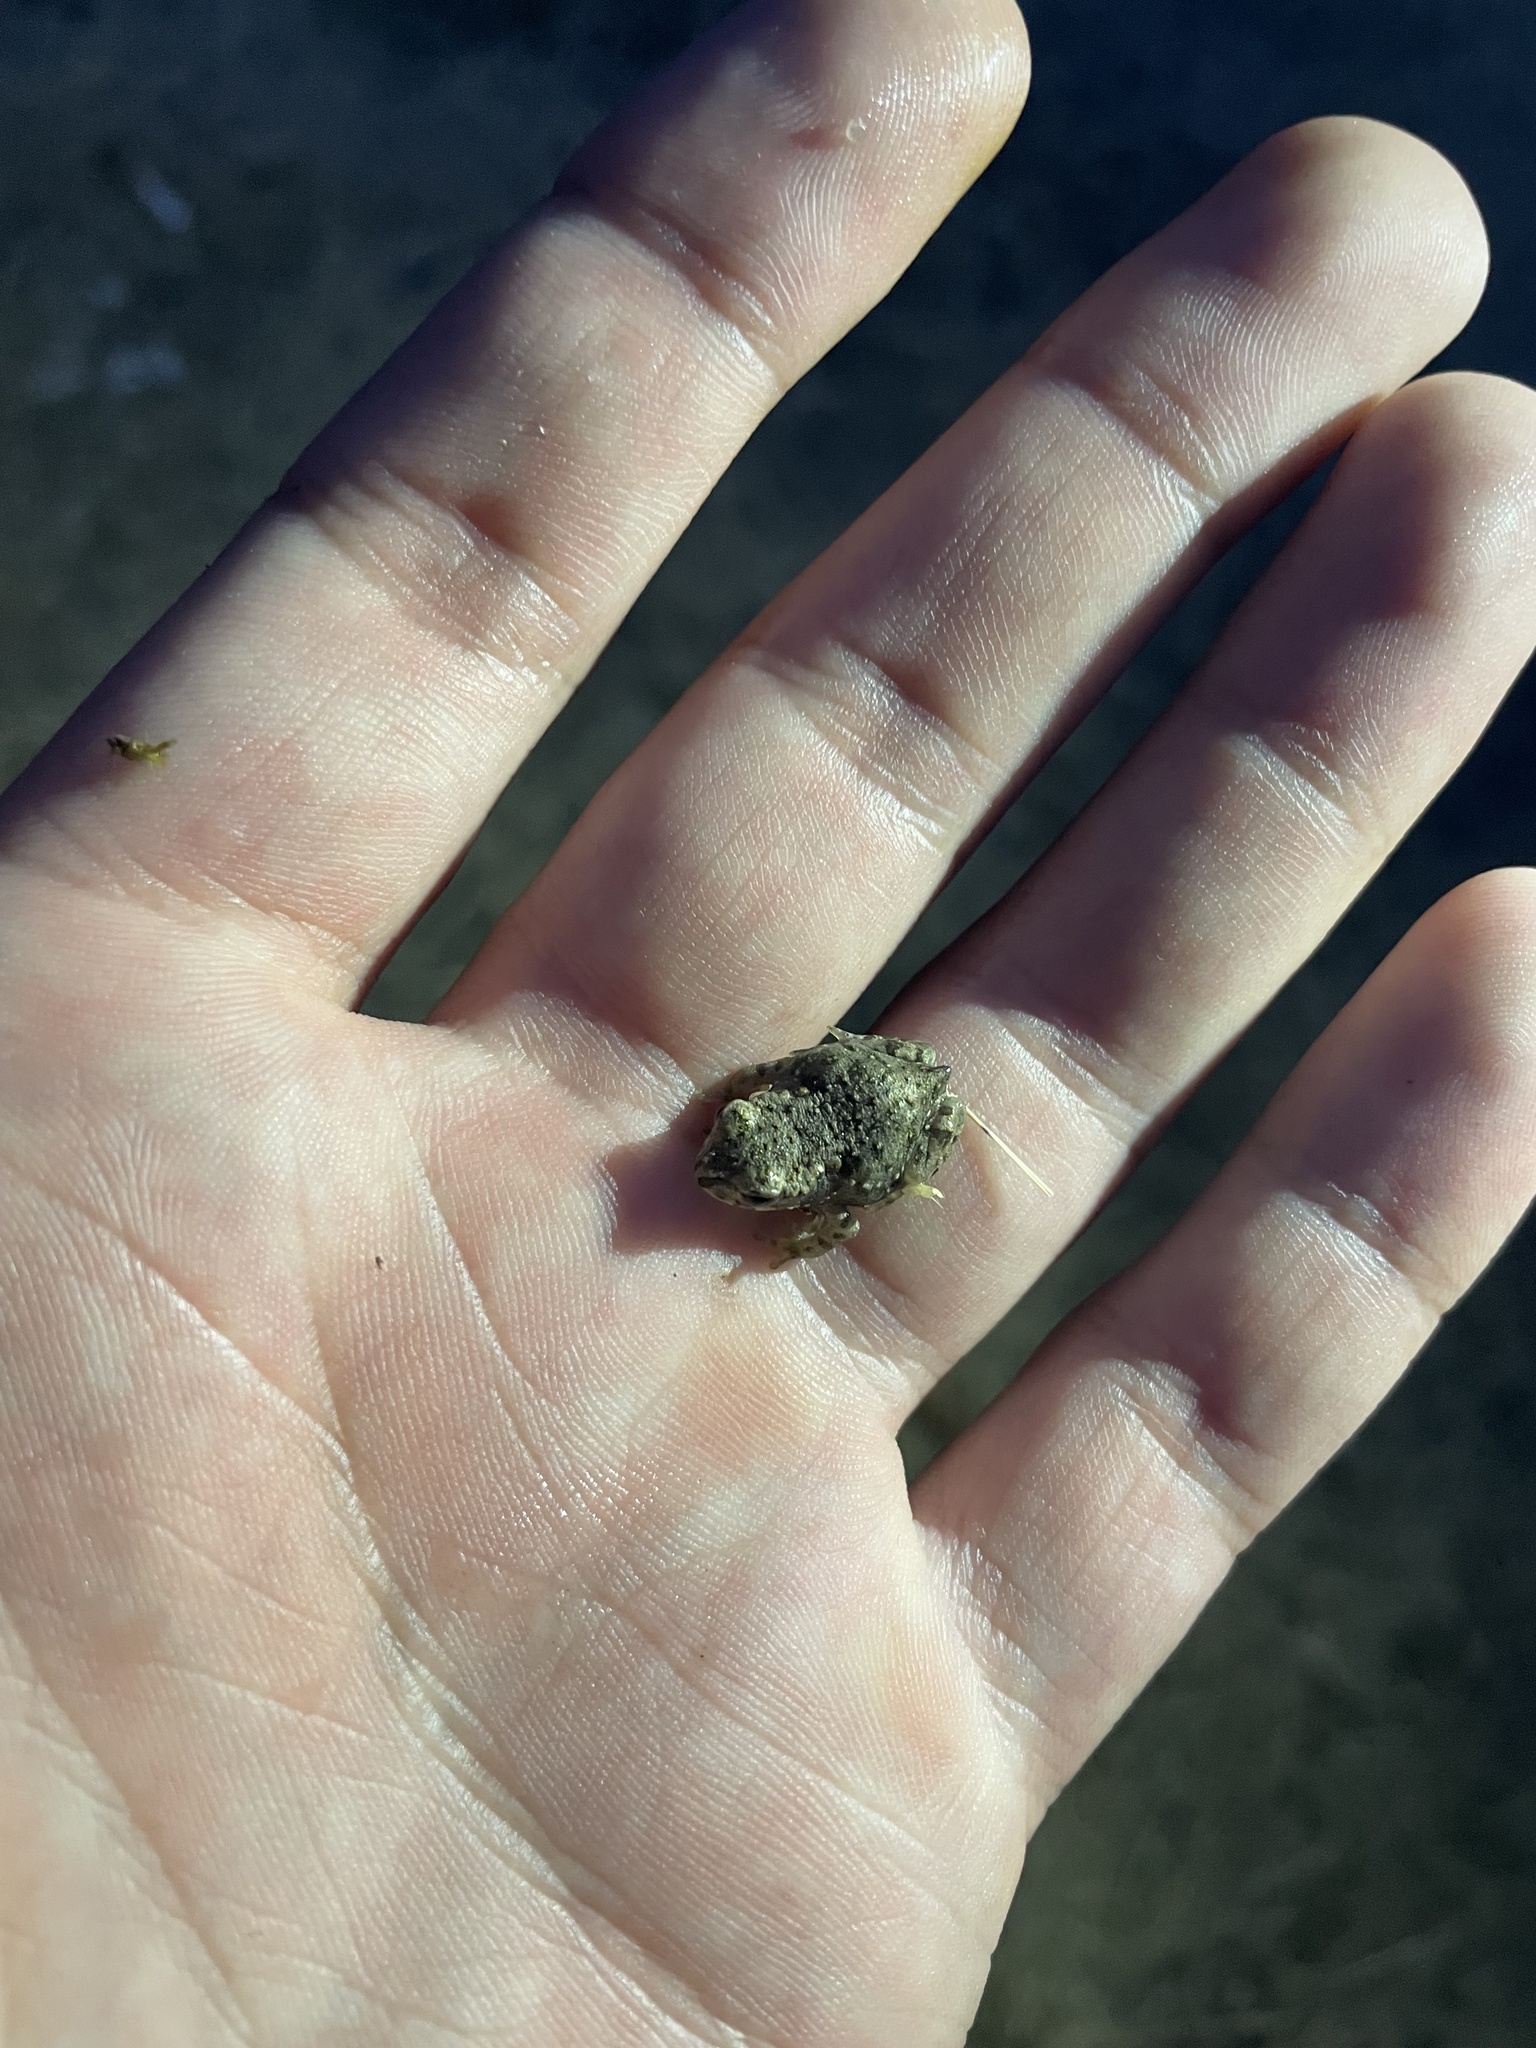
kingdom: Animalia
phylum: Chordata
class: Amphibia
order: Anura
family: Bufonidae
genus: Bufotes
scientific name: Bufotes viridis
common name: European green toad
